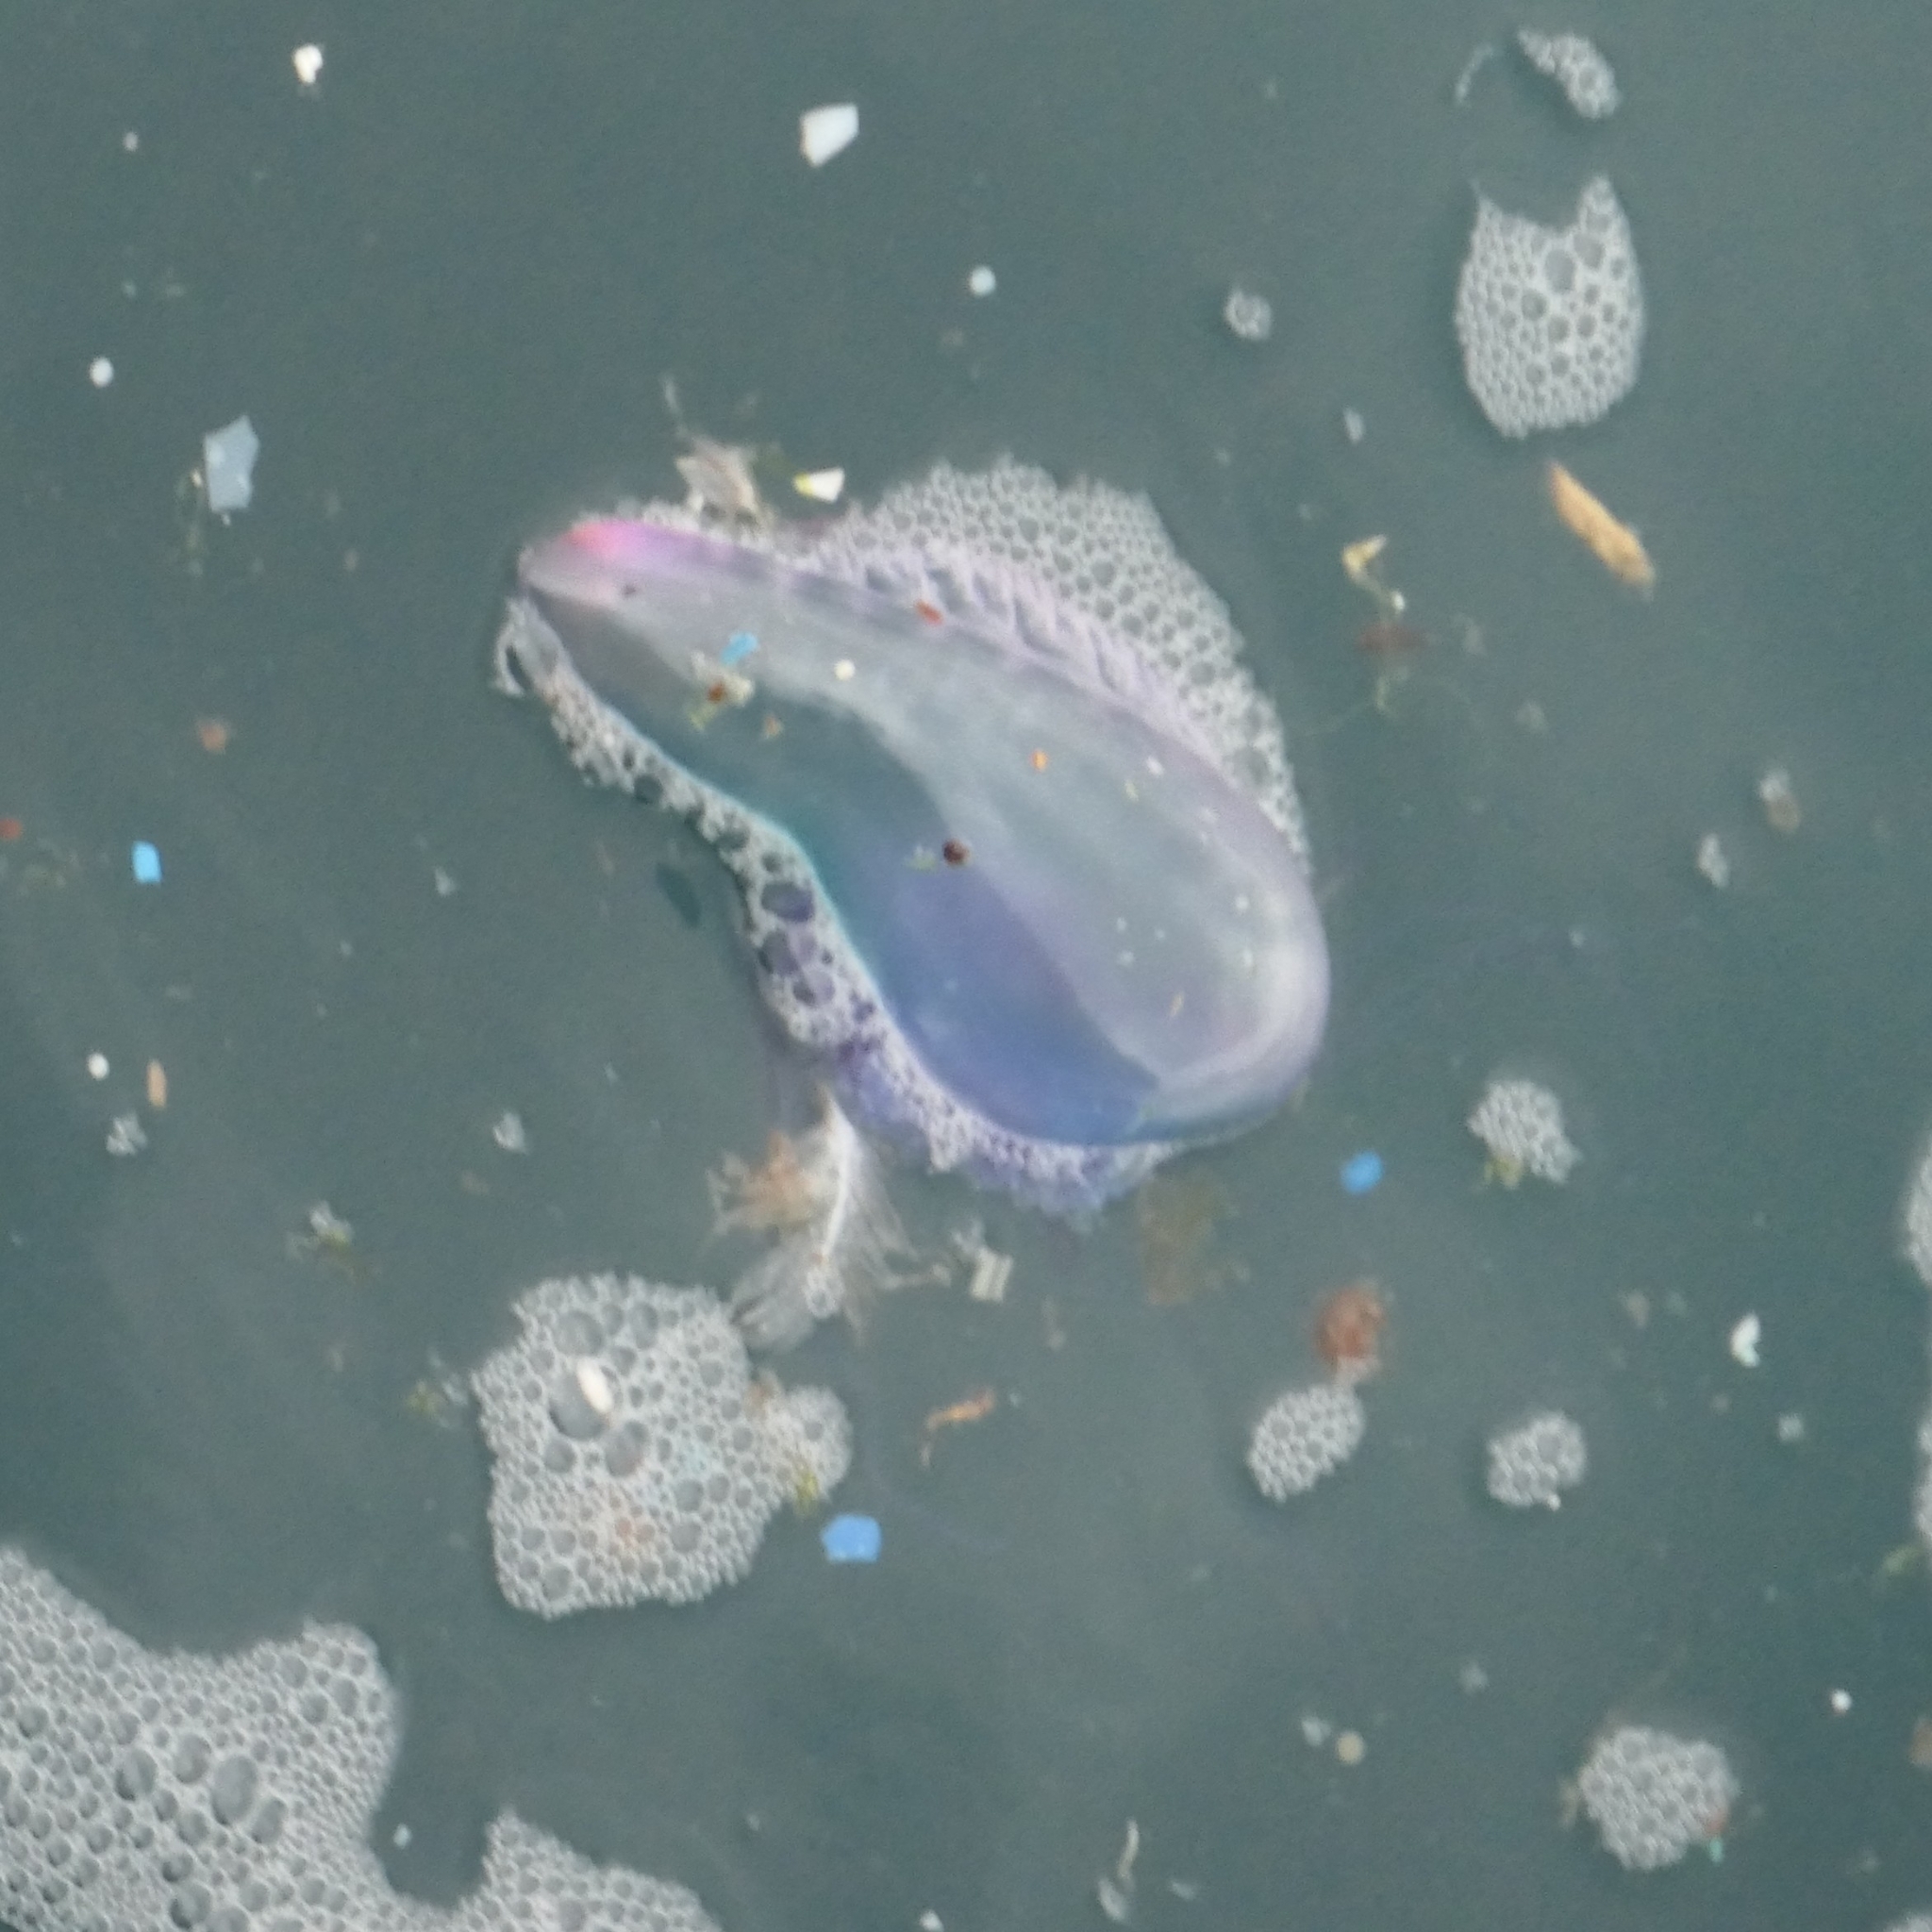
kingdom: Animalia
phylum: Cnidaria
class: Hydrozoa
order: Siphonophorae
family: Physaliidae
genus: Physalia
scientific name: Physalia physalis
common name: Portuguese man-of-war
